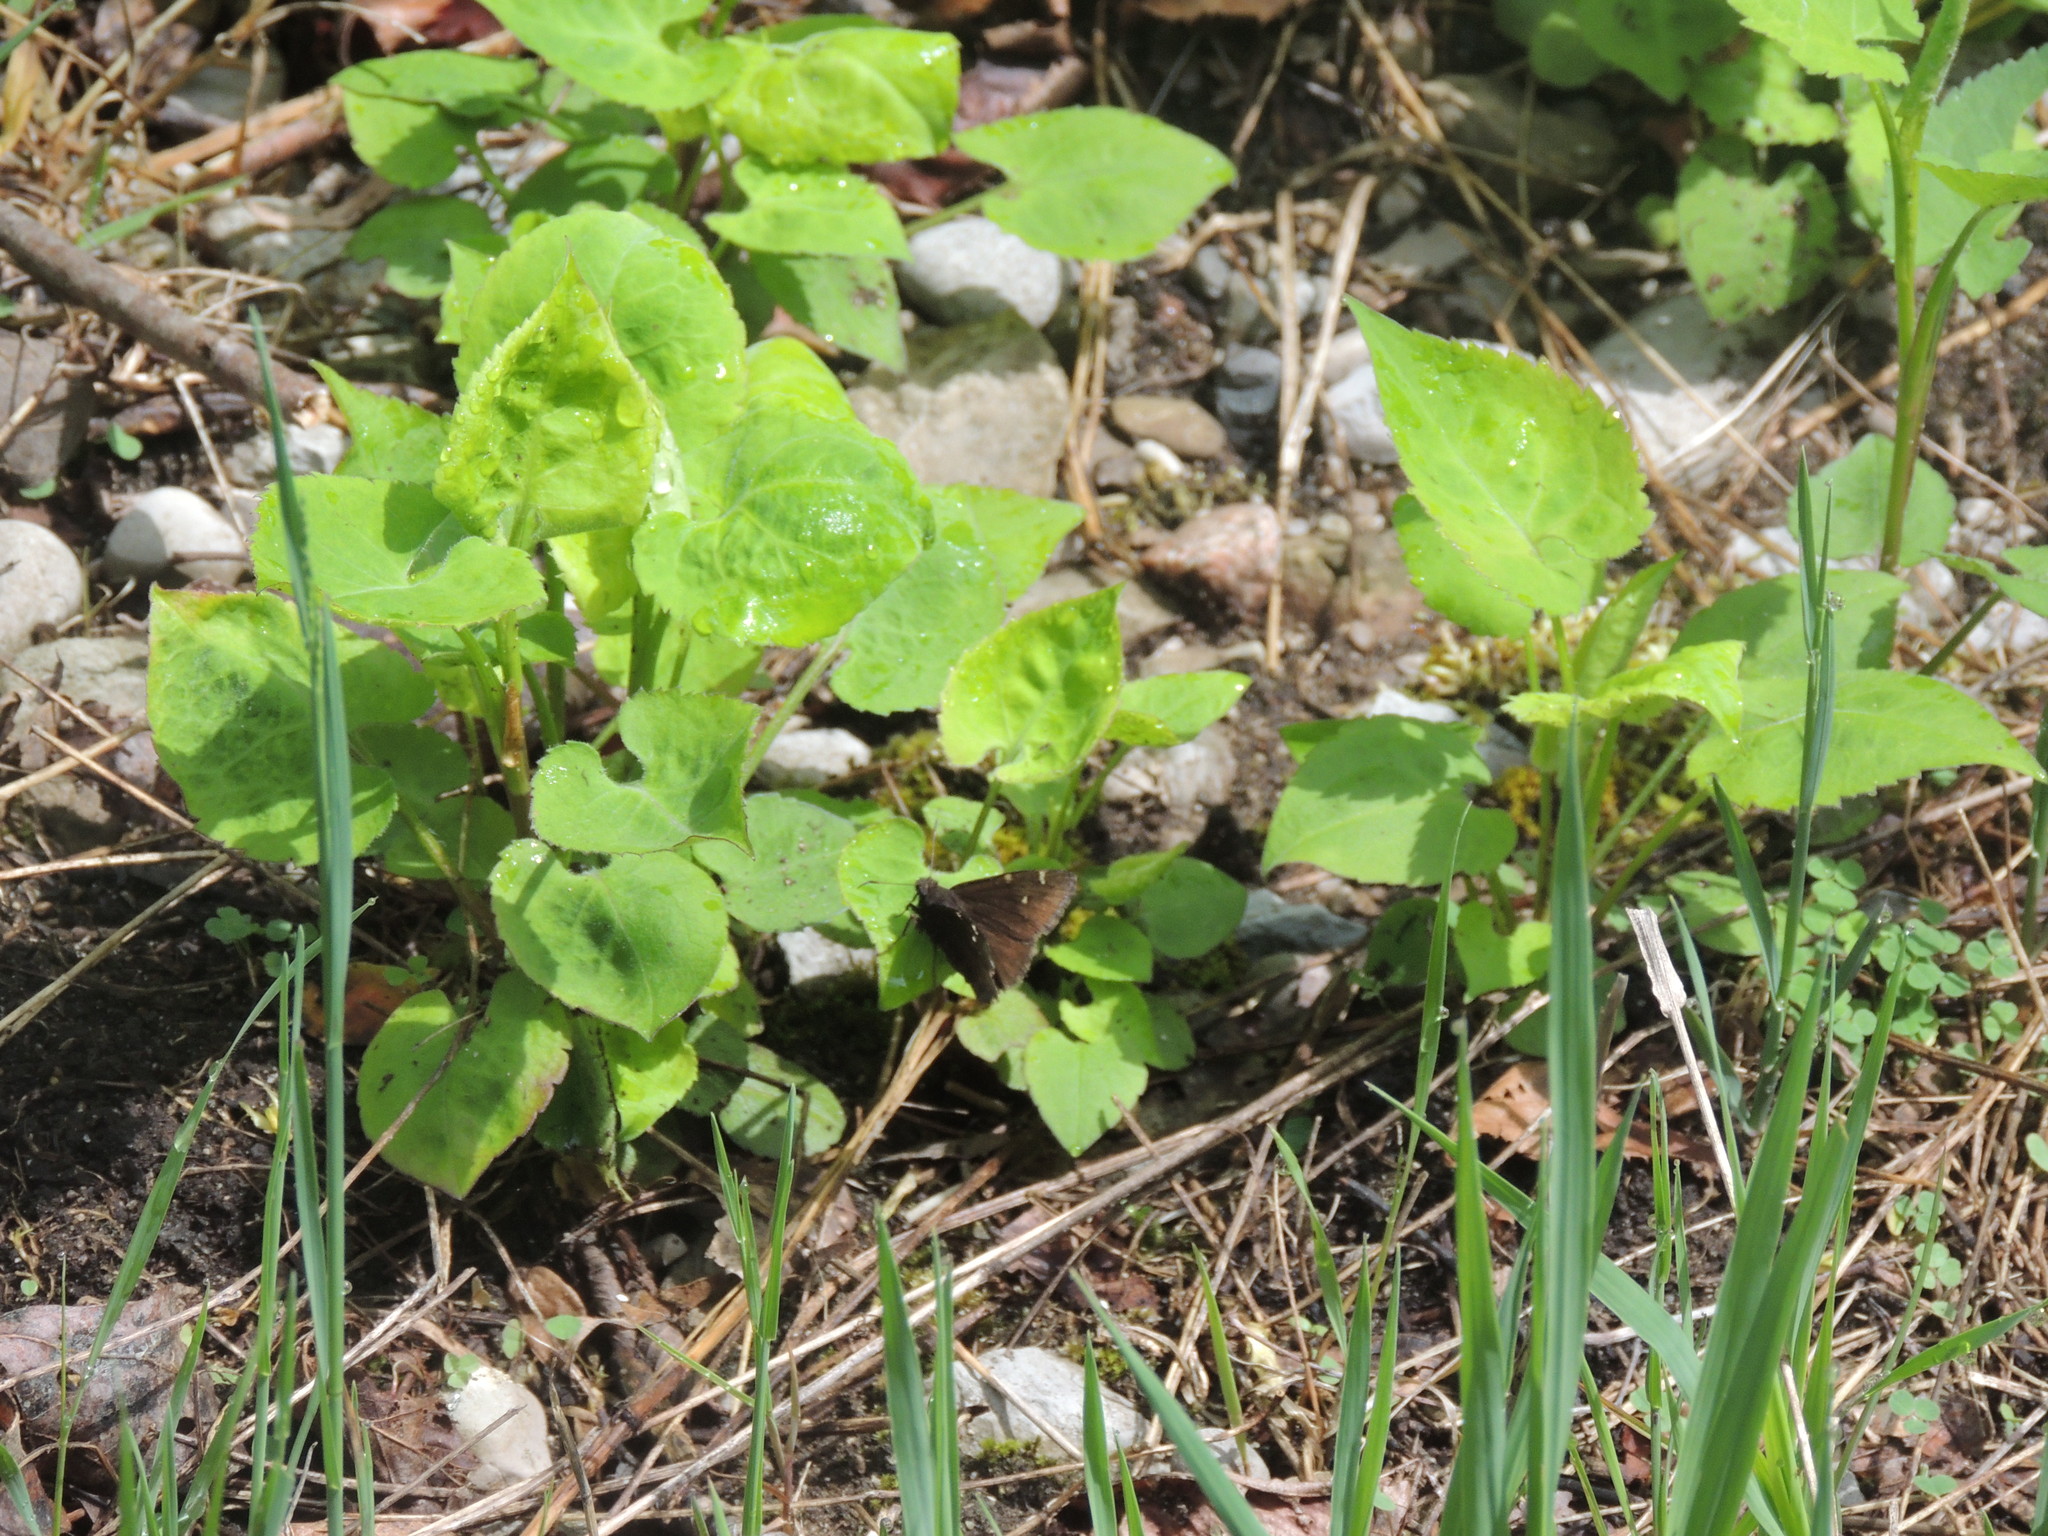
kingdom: Animalia
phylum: Arthropoda
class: Insecta
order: Lepidoptera
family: Hesperiidae
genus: Thorybes
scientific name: Thorybes pylades
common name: Northern cloudywing
